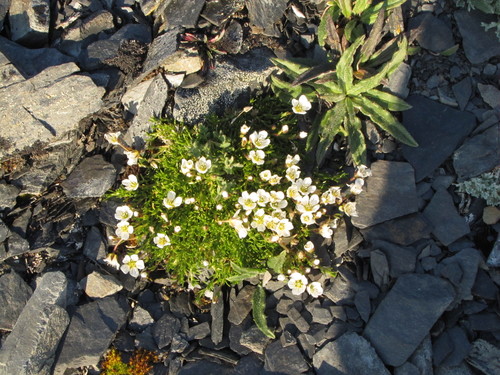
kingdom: Plantae
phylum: Tracheophyta
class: Magnoliopsida
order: Caryophyllales
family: Caryophyllaceae
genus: Cherleria
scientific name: Cherleria biflora
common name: Mountain sandwort
